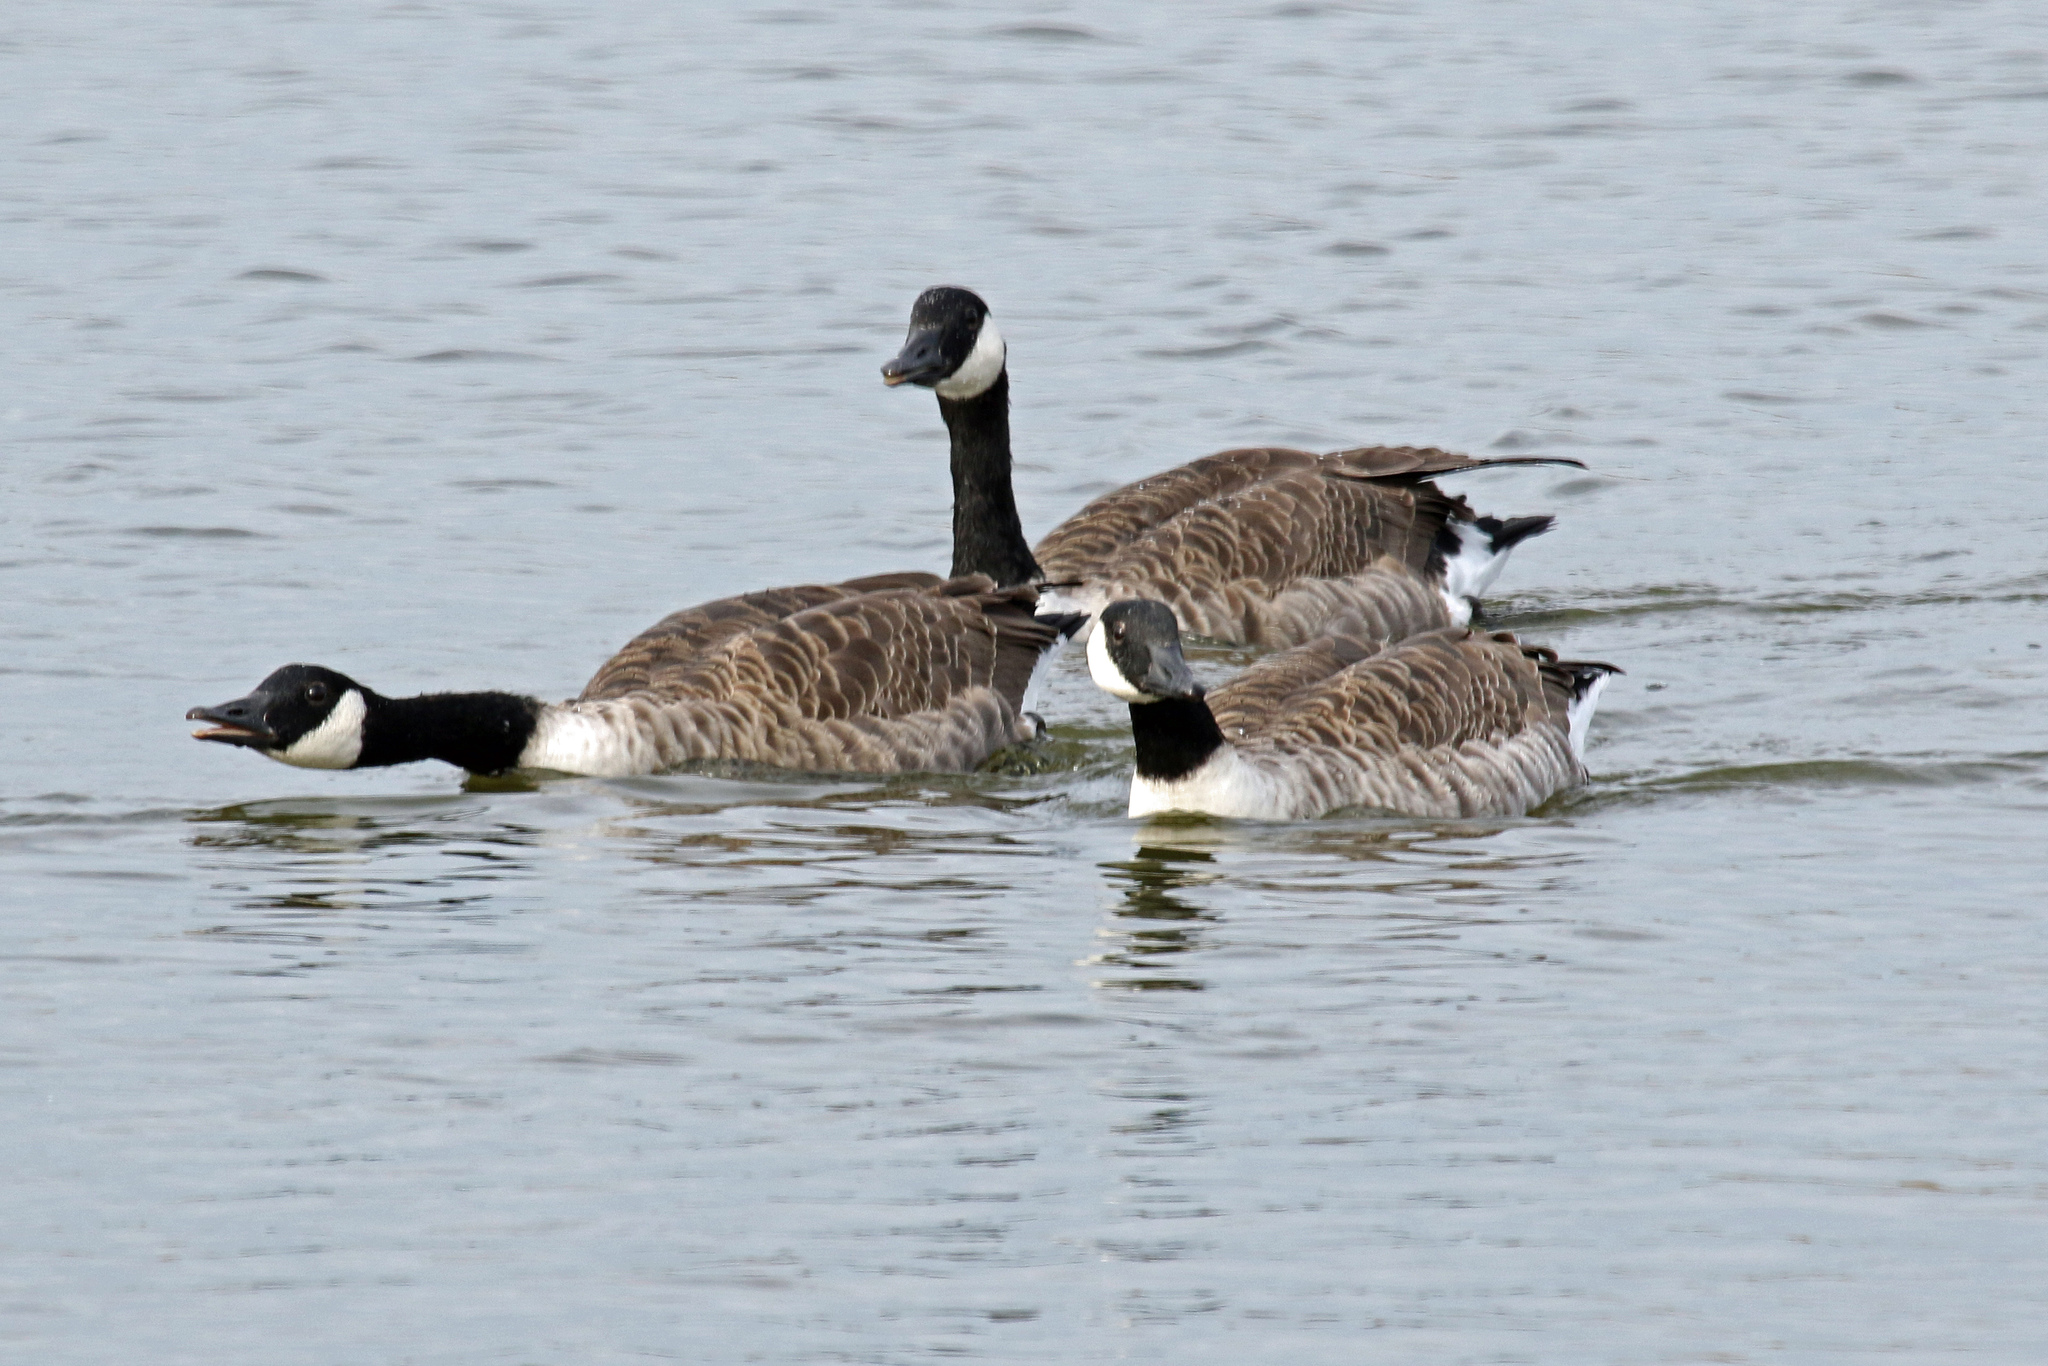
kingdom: Animalia
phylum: Chordata
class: Aves
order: Anseriformes
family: Anatidae
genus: Branta
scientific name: Branta canadensis
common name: Canada goose
